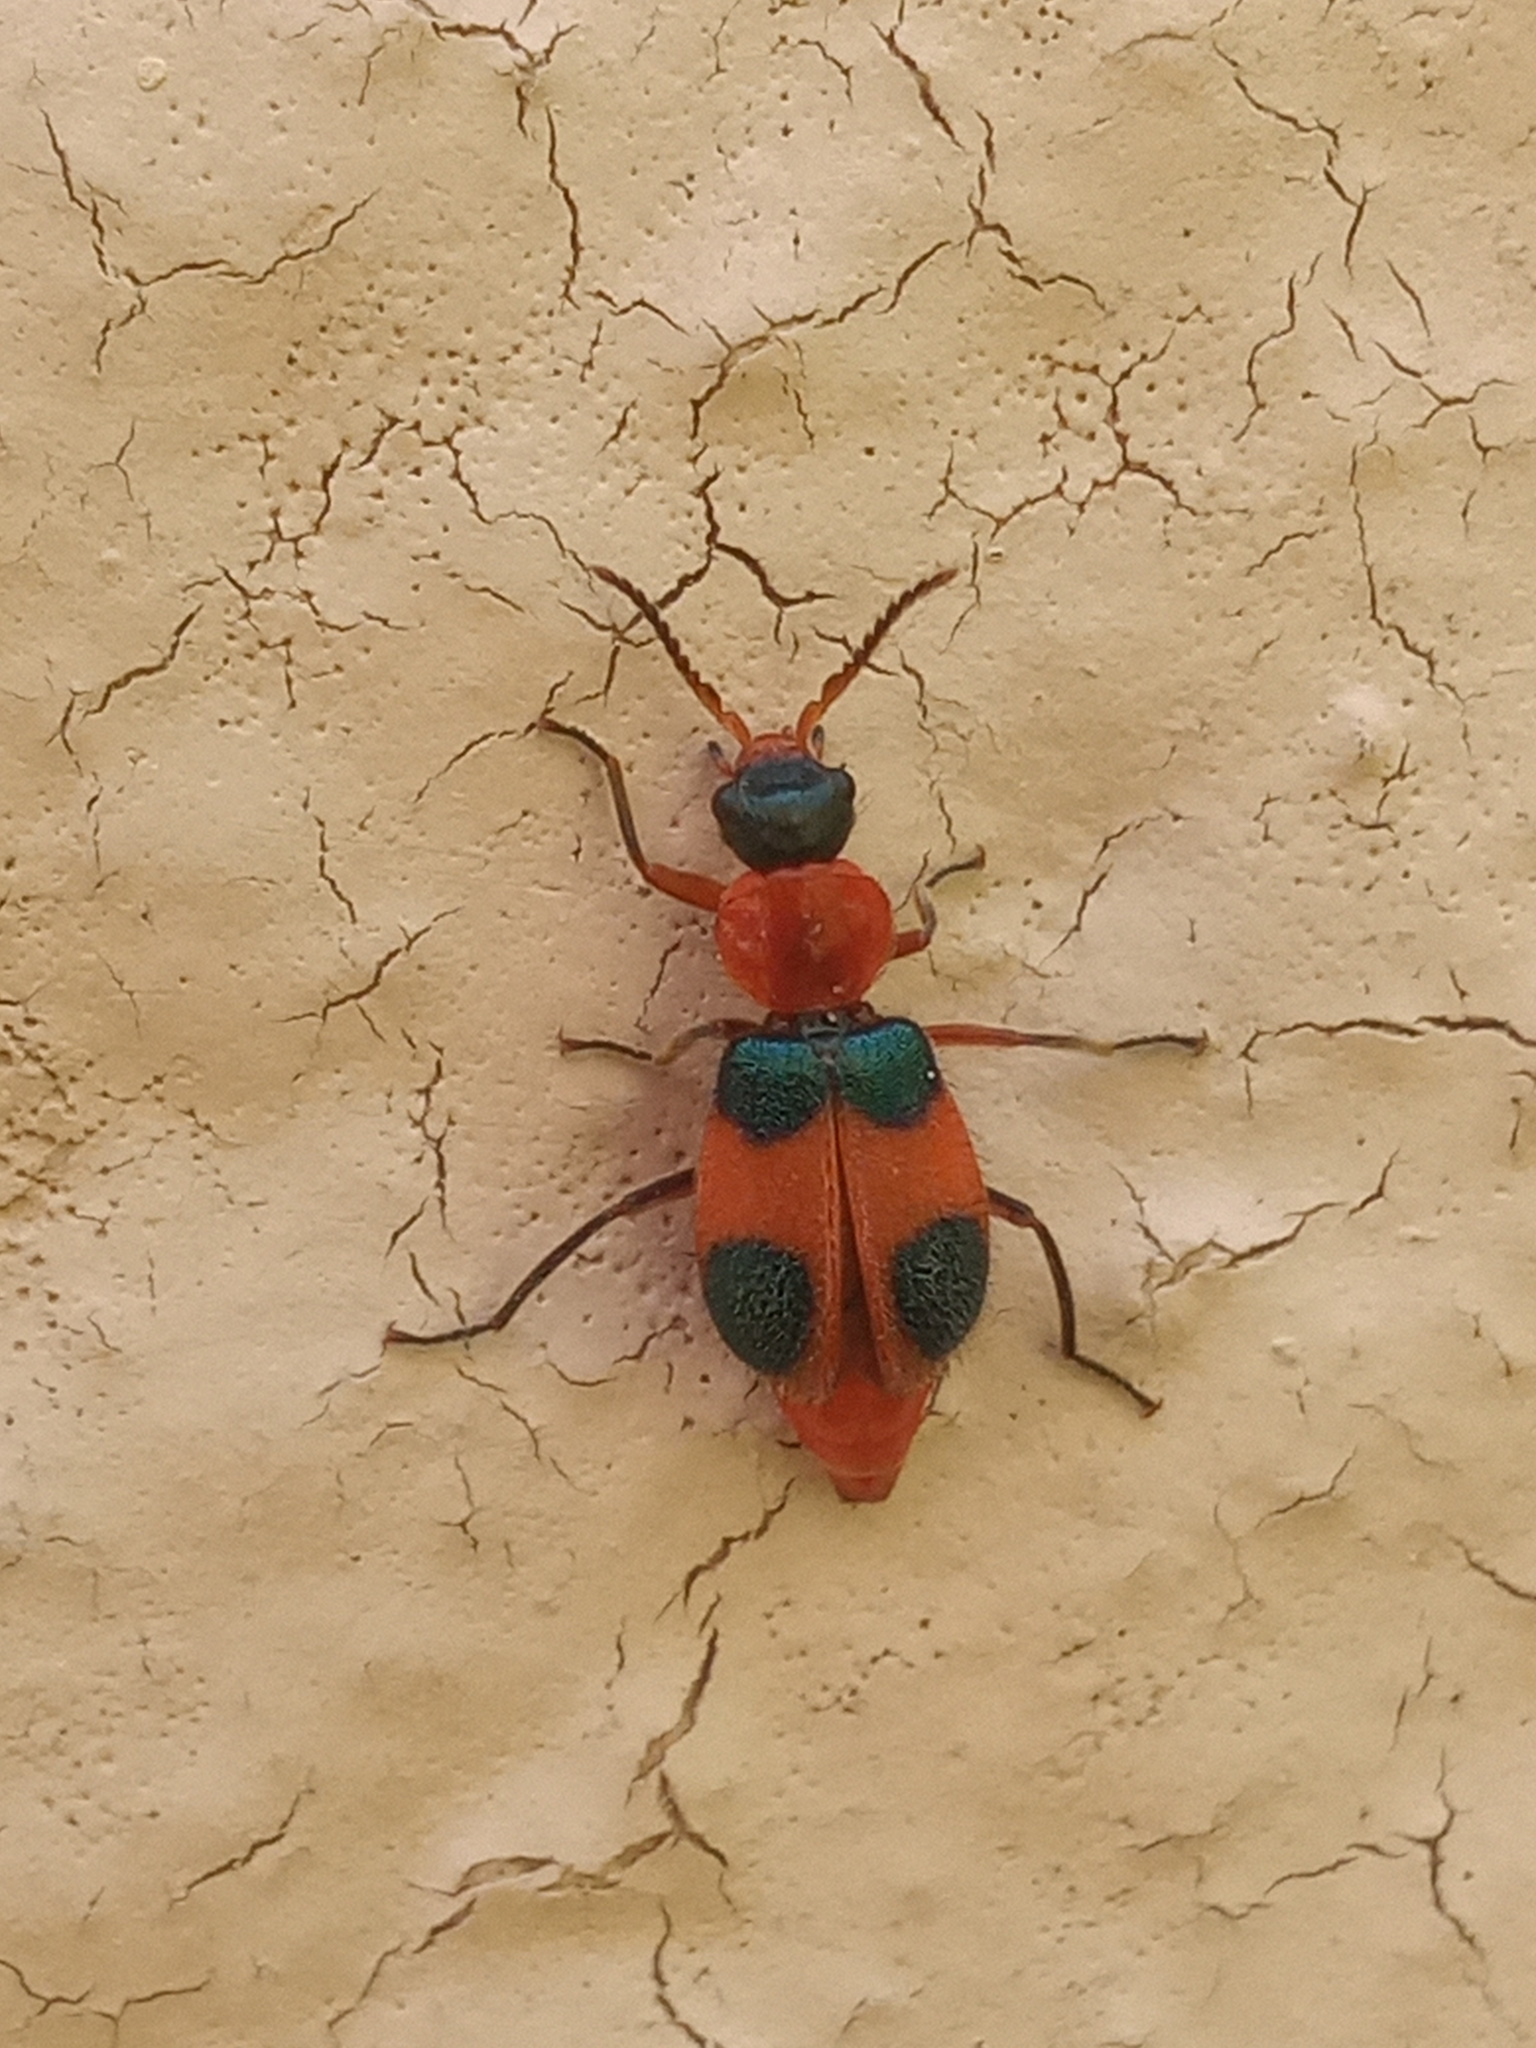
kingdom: Animalia
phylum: Arthropoda
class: Insecta
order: Coleoptera
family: Melyridae
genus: Collops
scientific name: Collops
